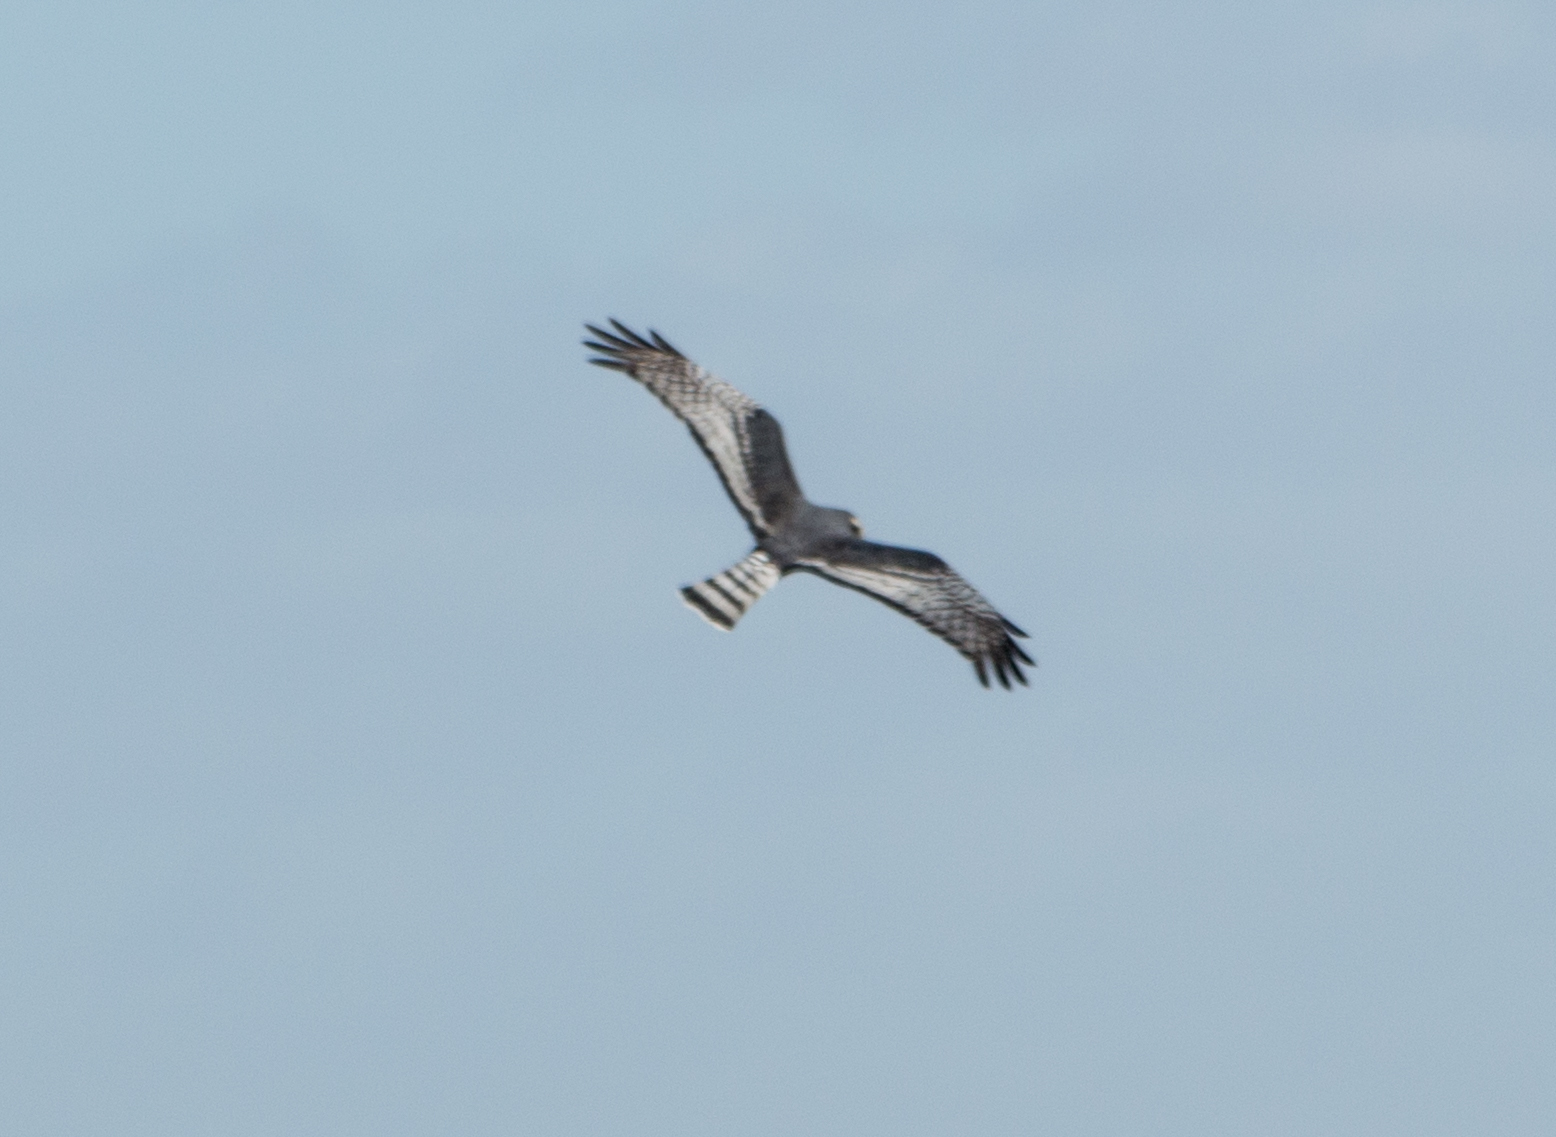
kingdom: Animalia
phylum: Chordata
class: Aves
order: Accipitriformes
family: Accipitridae
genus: Circus
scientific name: Circus buffoni
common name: Long-winged harrier
